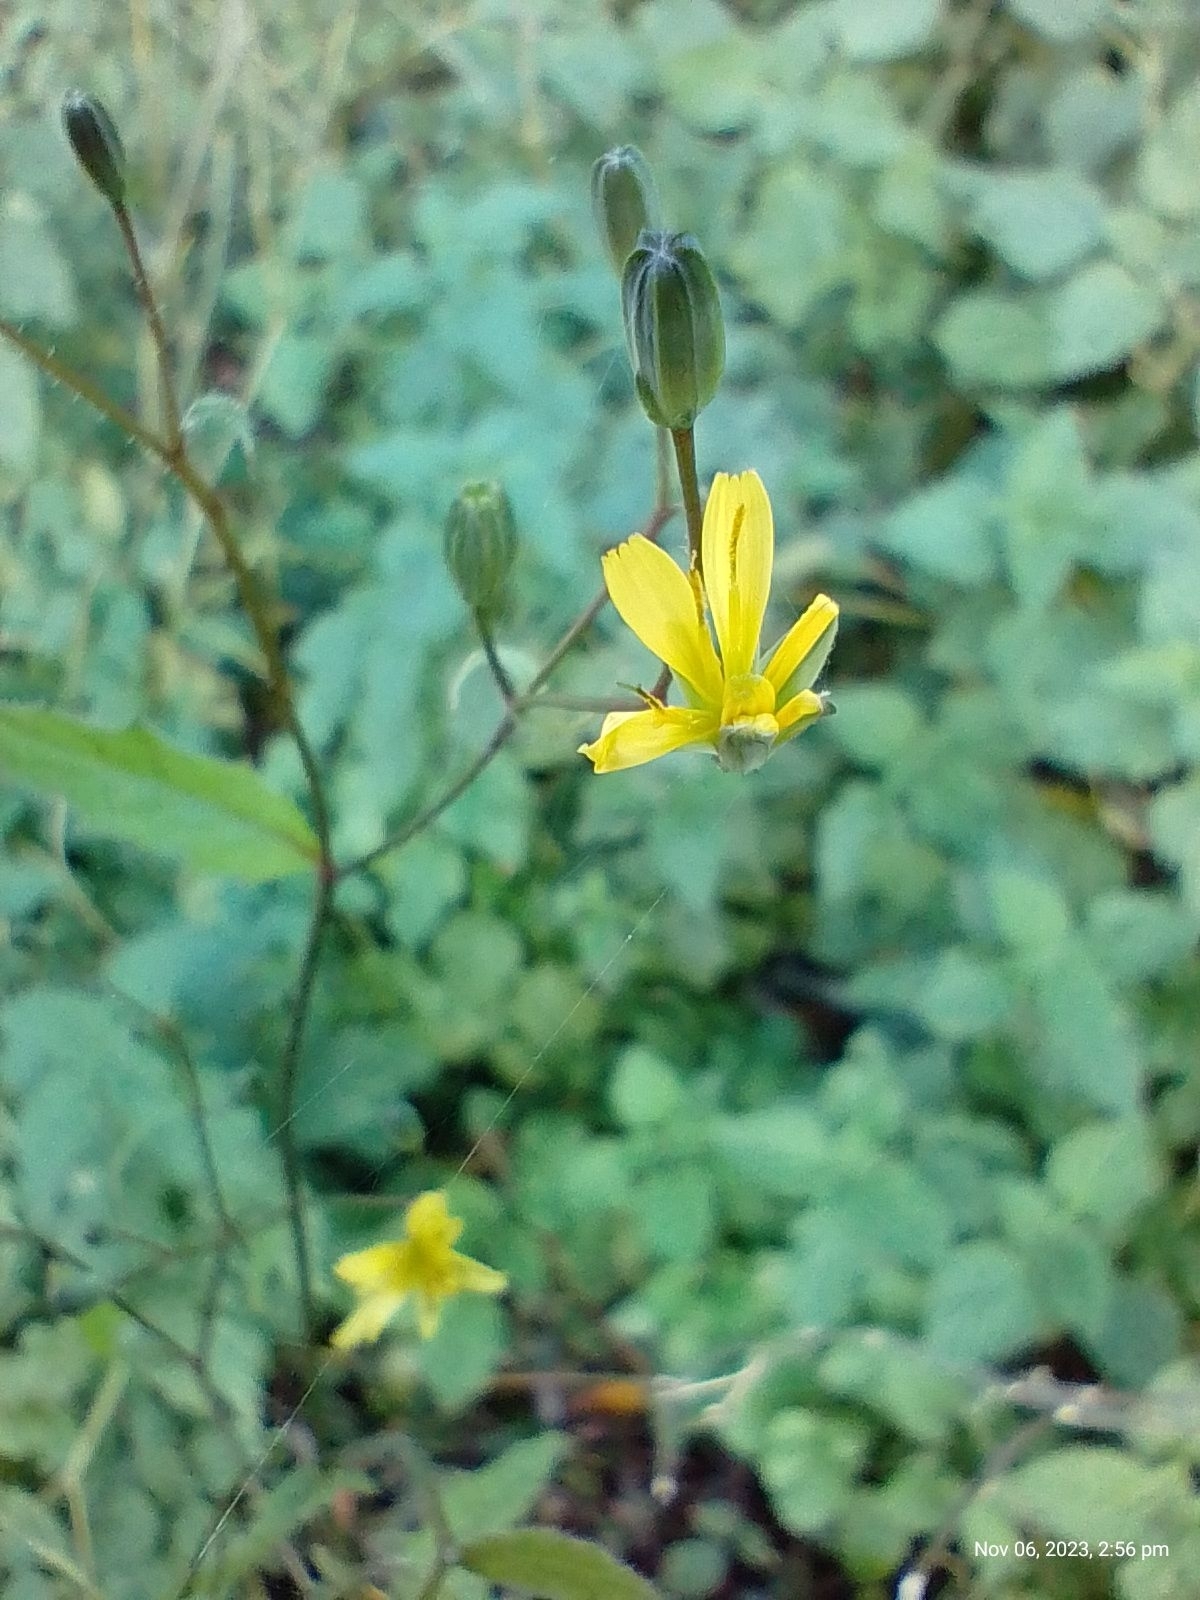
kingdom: Plantae
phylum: Tracheophyta
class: Magnoliopsida
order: Asterales
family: Asteraceae
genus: Lapsana
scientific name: Lapsana communis
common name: Nipplewort
